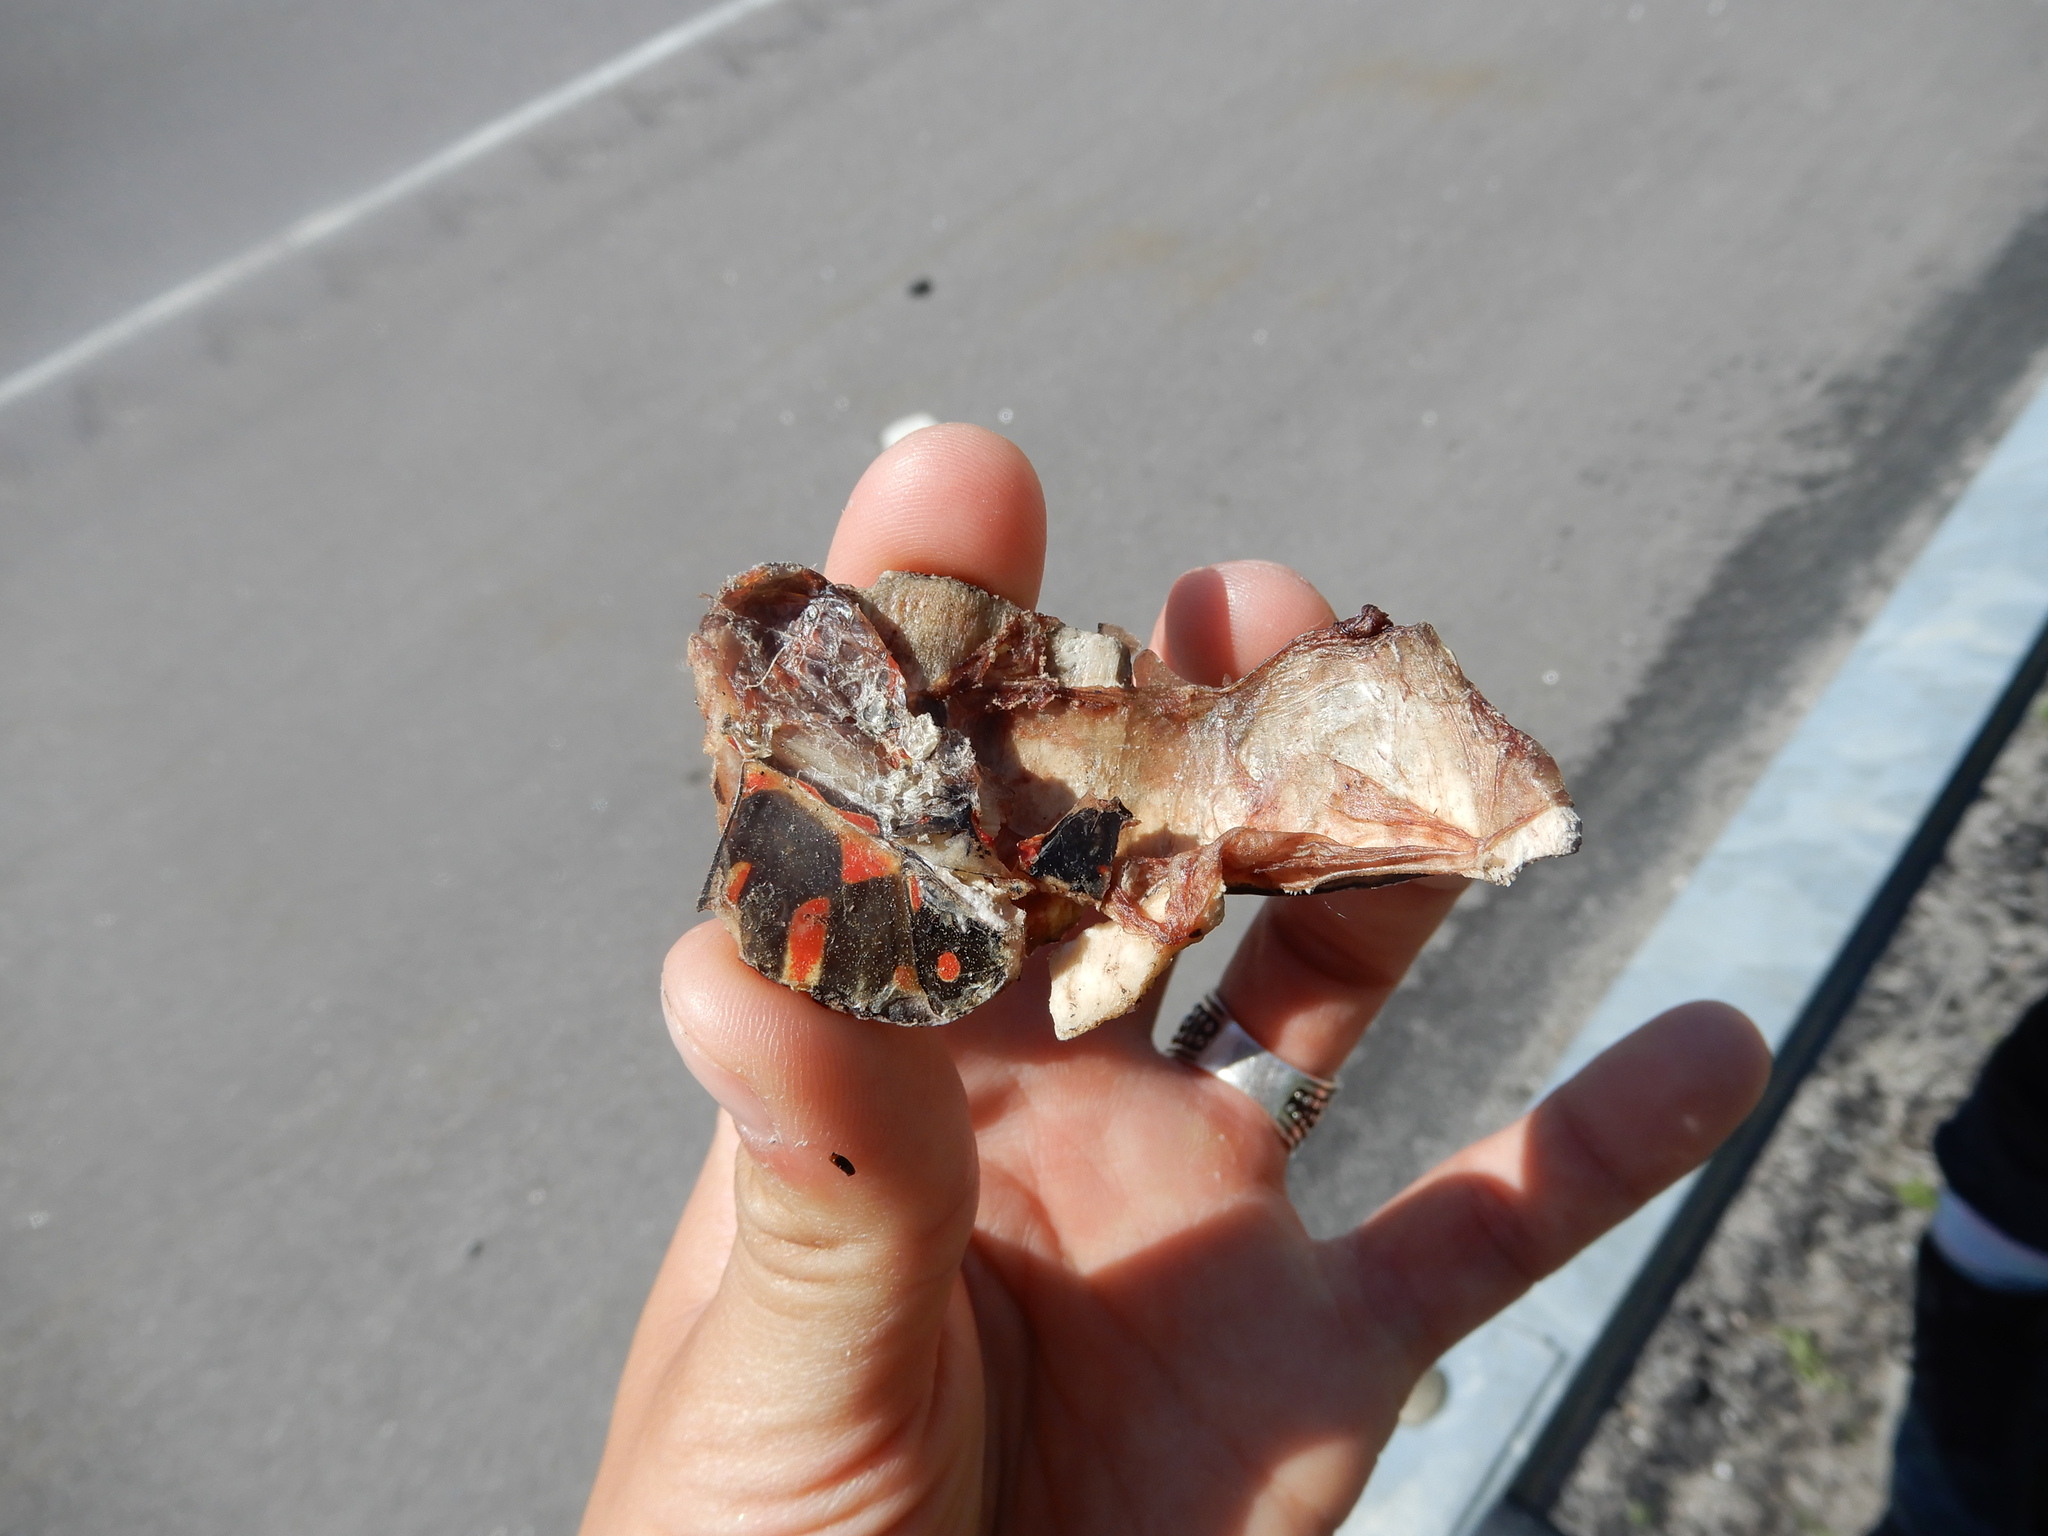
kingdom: Animalia
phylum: Chordata
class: Testudines
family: Emydidae
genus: Chrysemys
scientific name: Chrysemys picta
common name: Painted turtle
